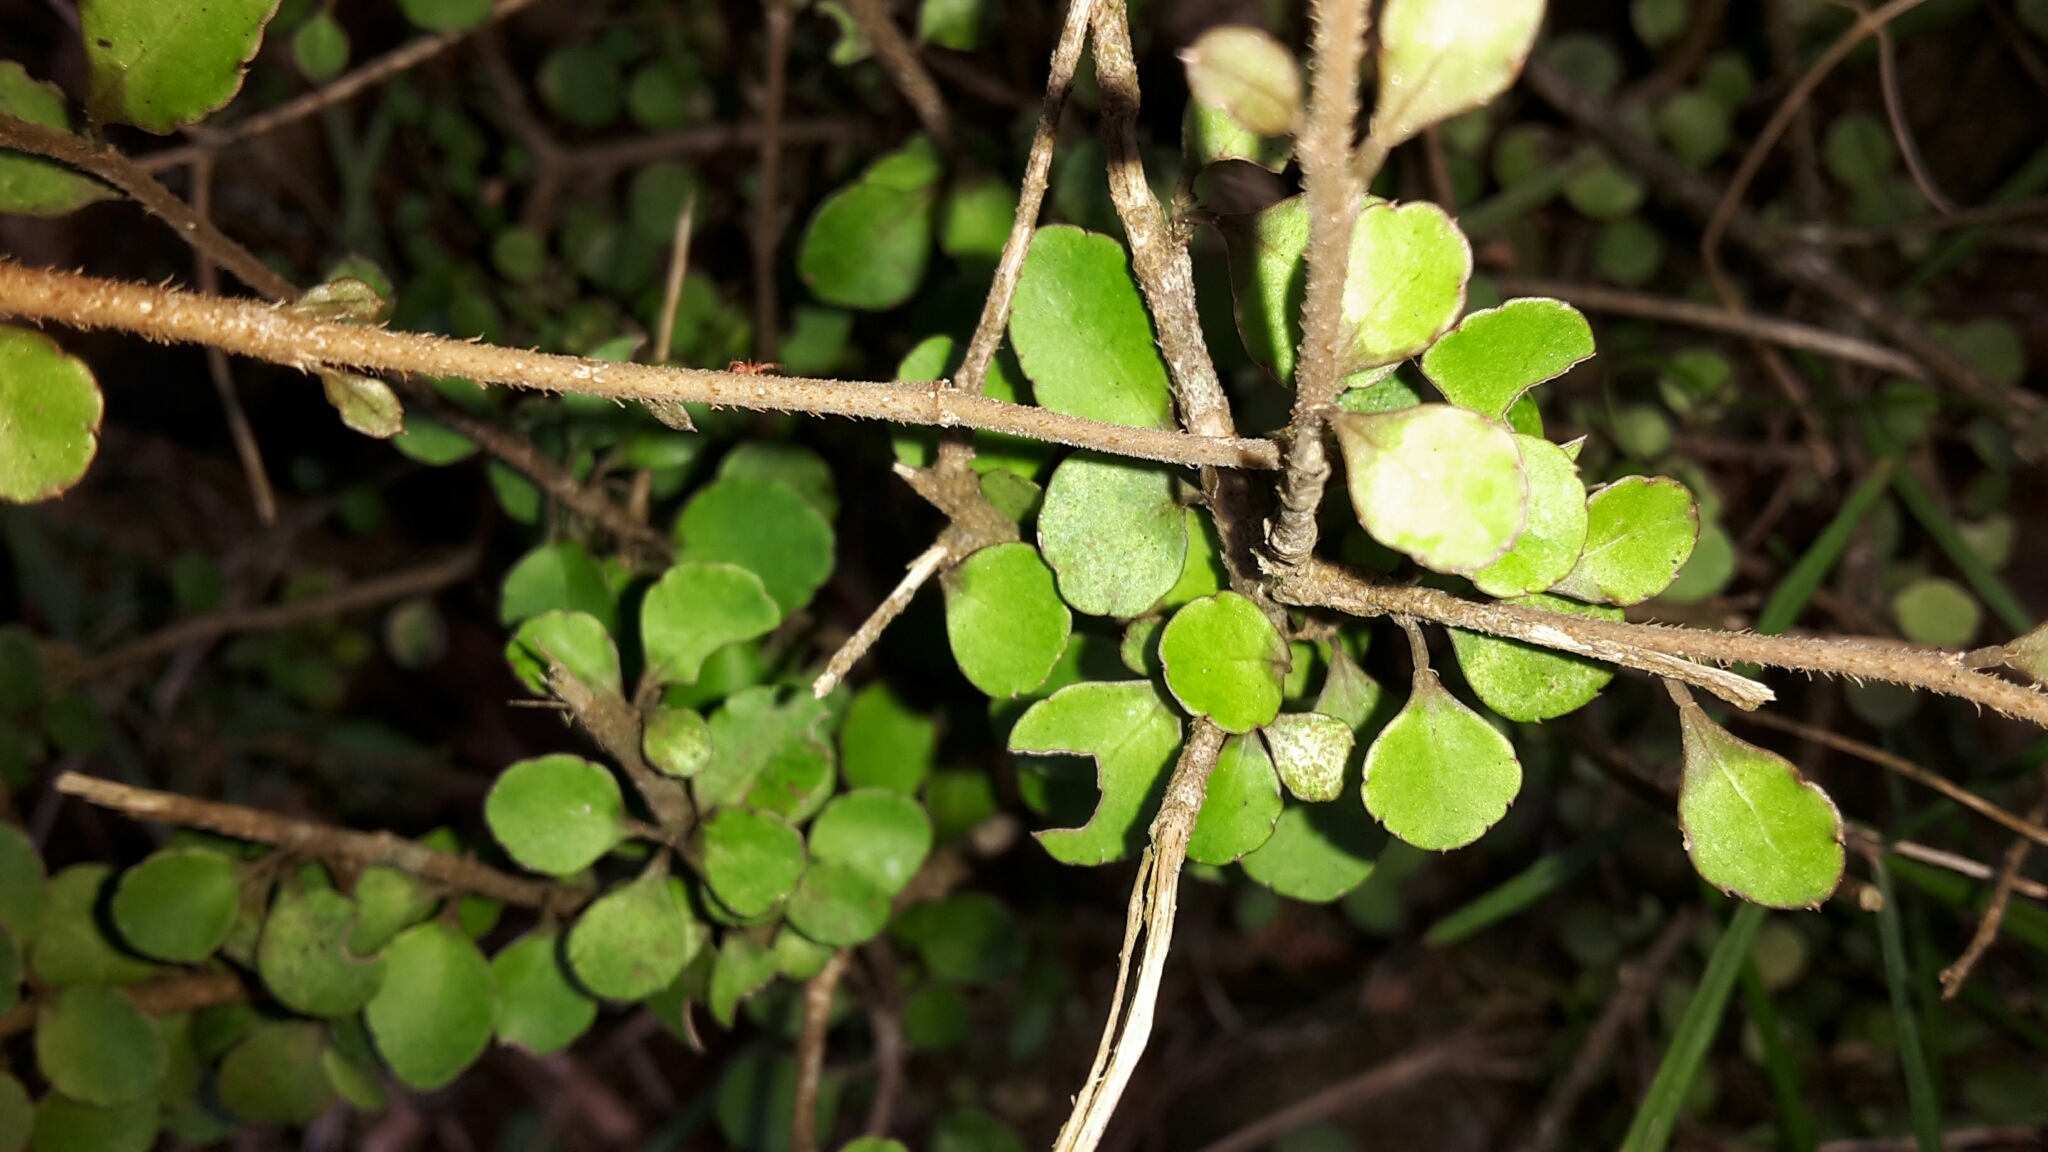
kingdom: Plantae
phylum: Tracheophyta
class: Magnoliopsida
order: Apiales
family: Araliaceae
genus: Raukaua
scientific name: Raukaua anomalus
